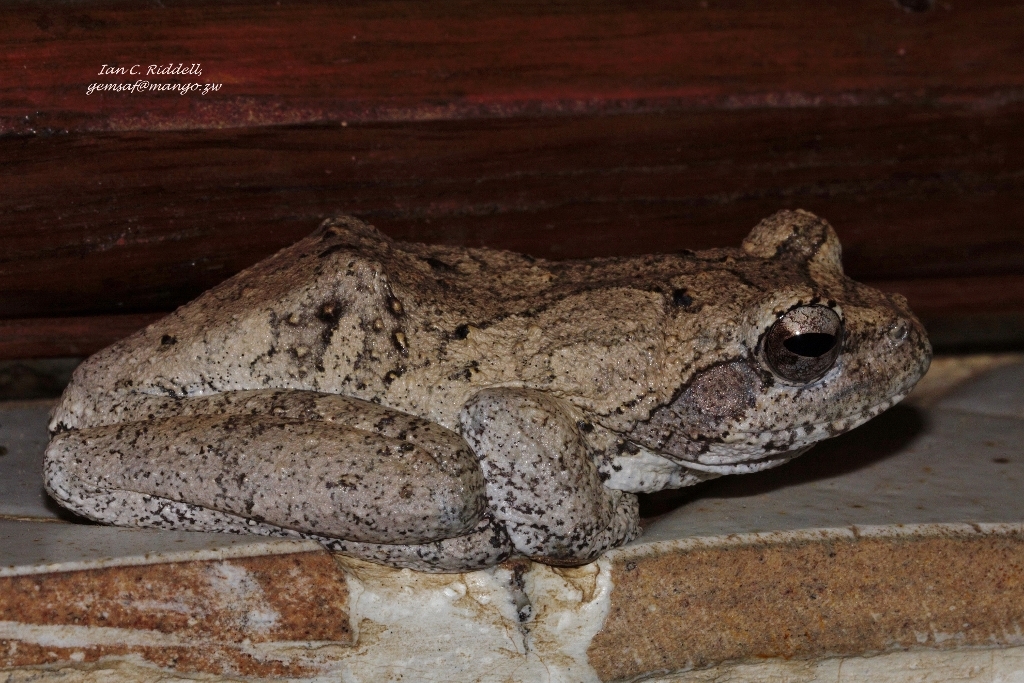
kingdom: Animalia
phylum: Chordata
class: Amphibia
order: Anura
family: Rhacophoridae
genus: Chiromantis
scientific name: Chiromantis xerampelina
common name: African gray treefrog
